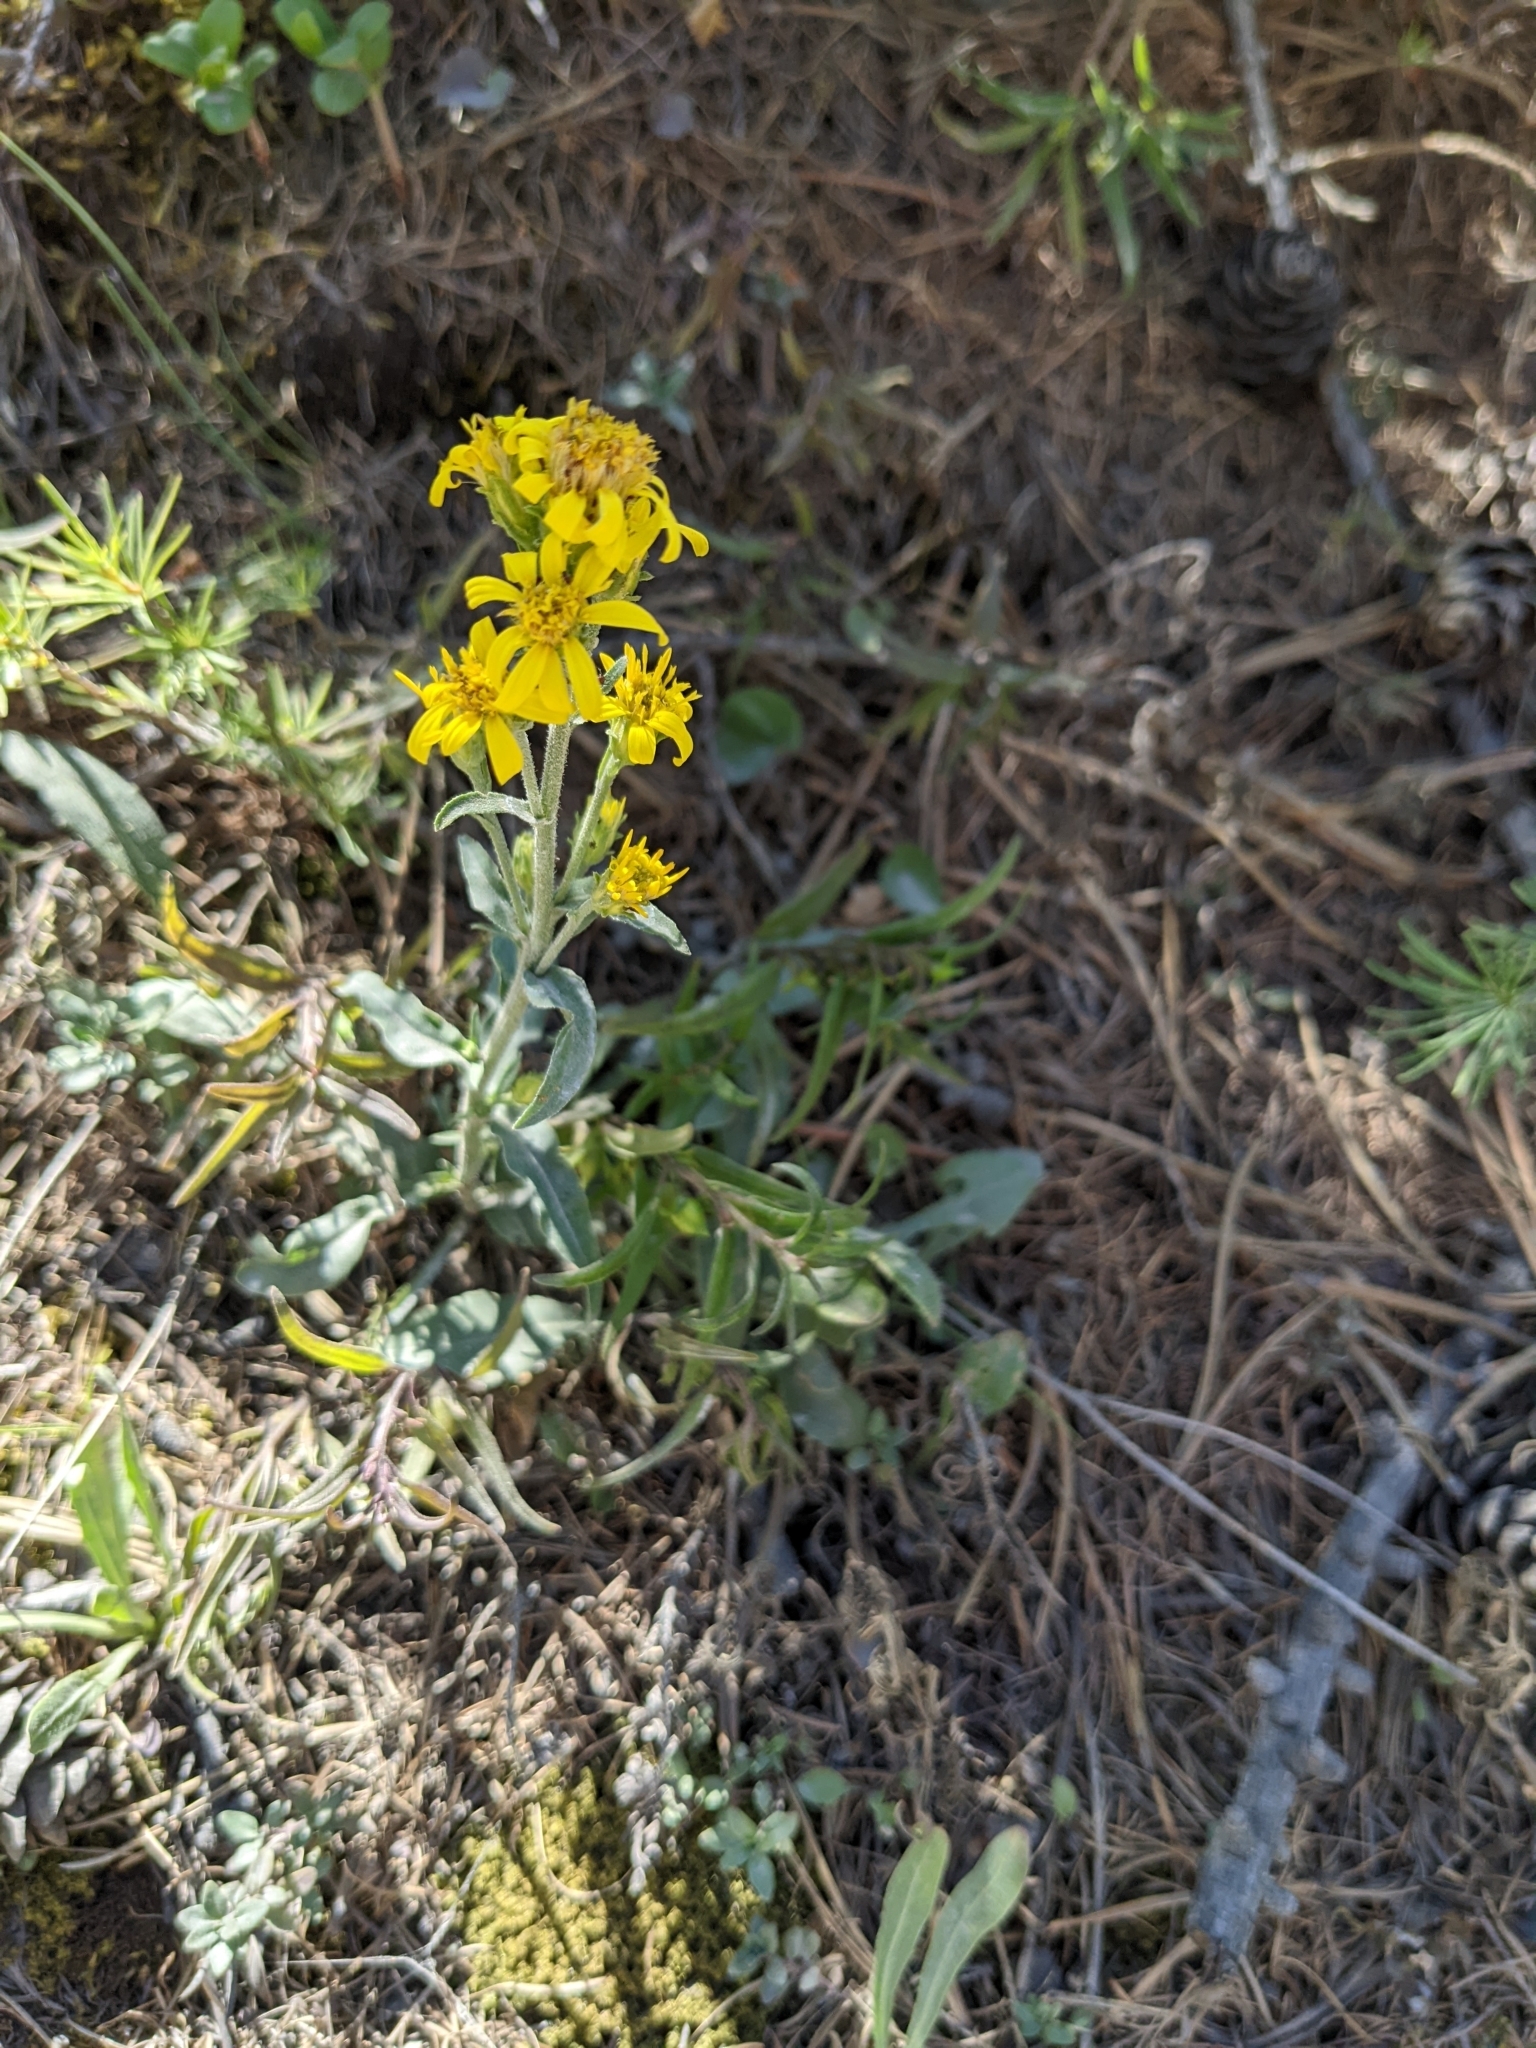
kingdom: Plantae
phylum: Tracheophyta
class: Magnoliopsida
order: Asterales
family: Asteraceae
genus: Solidago
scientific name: Solidago virgaurea
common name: Goldenrod
